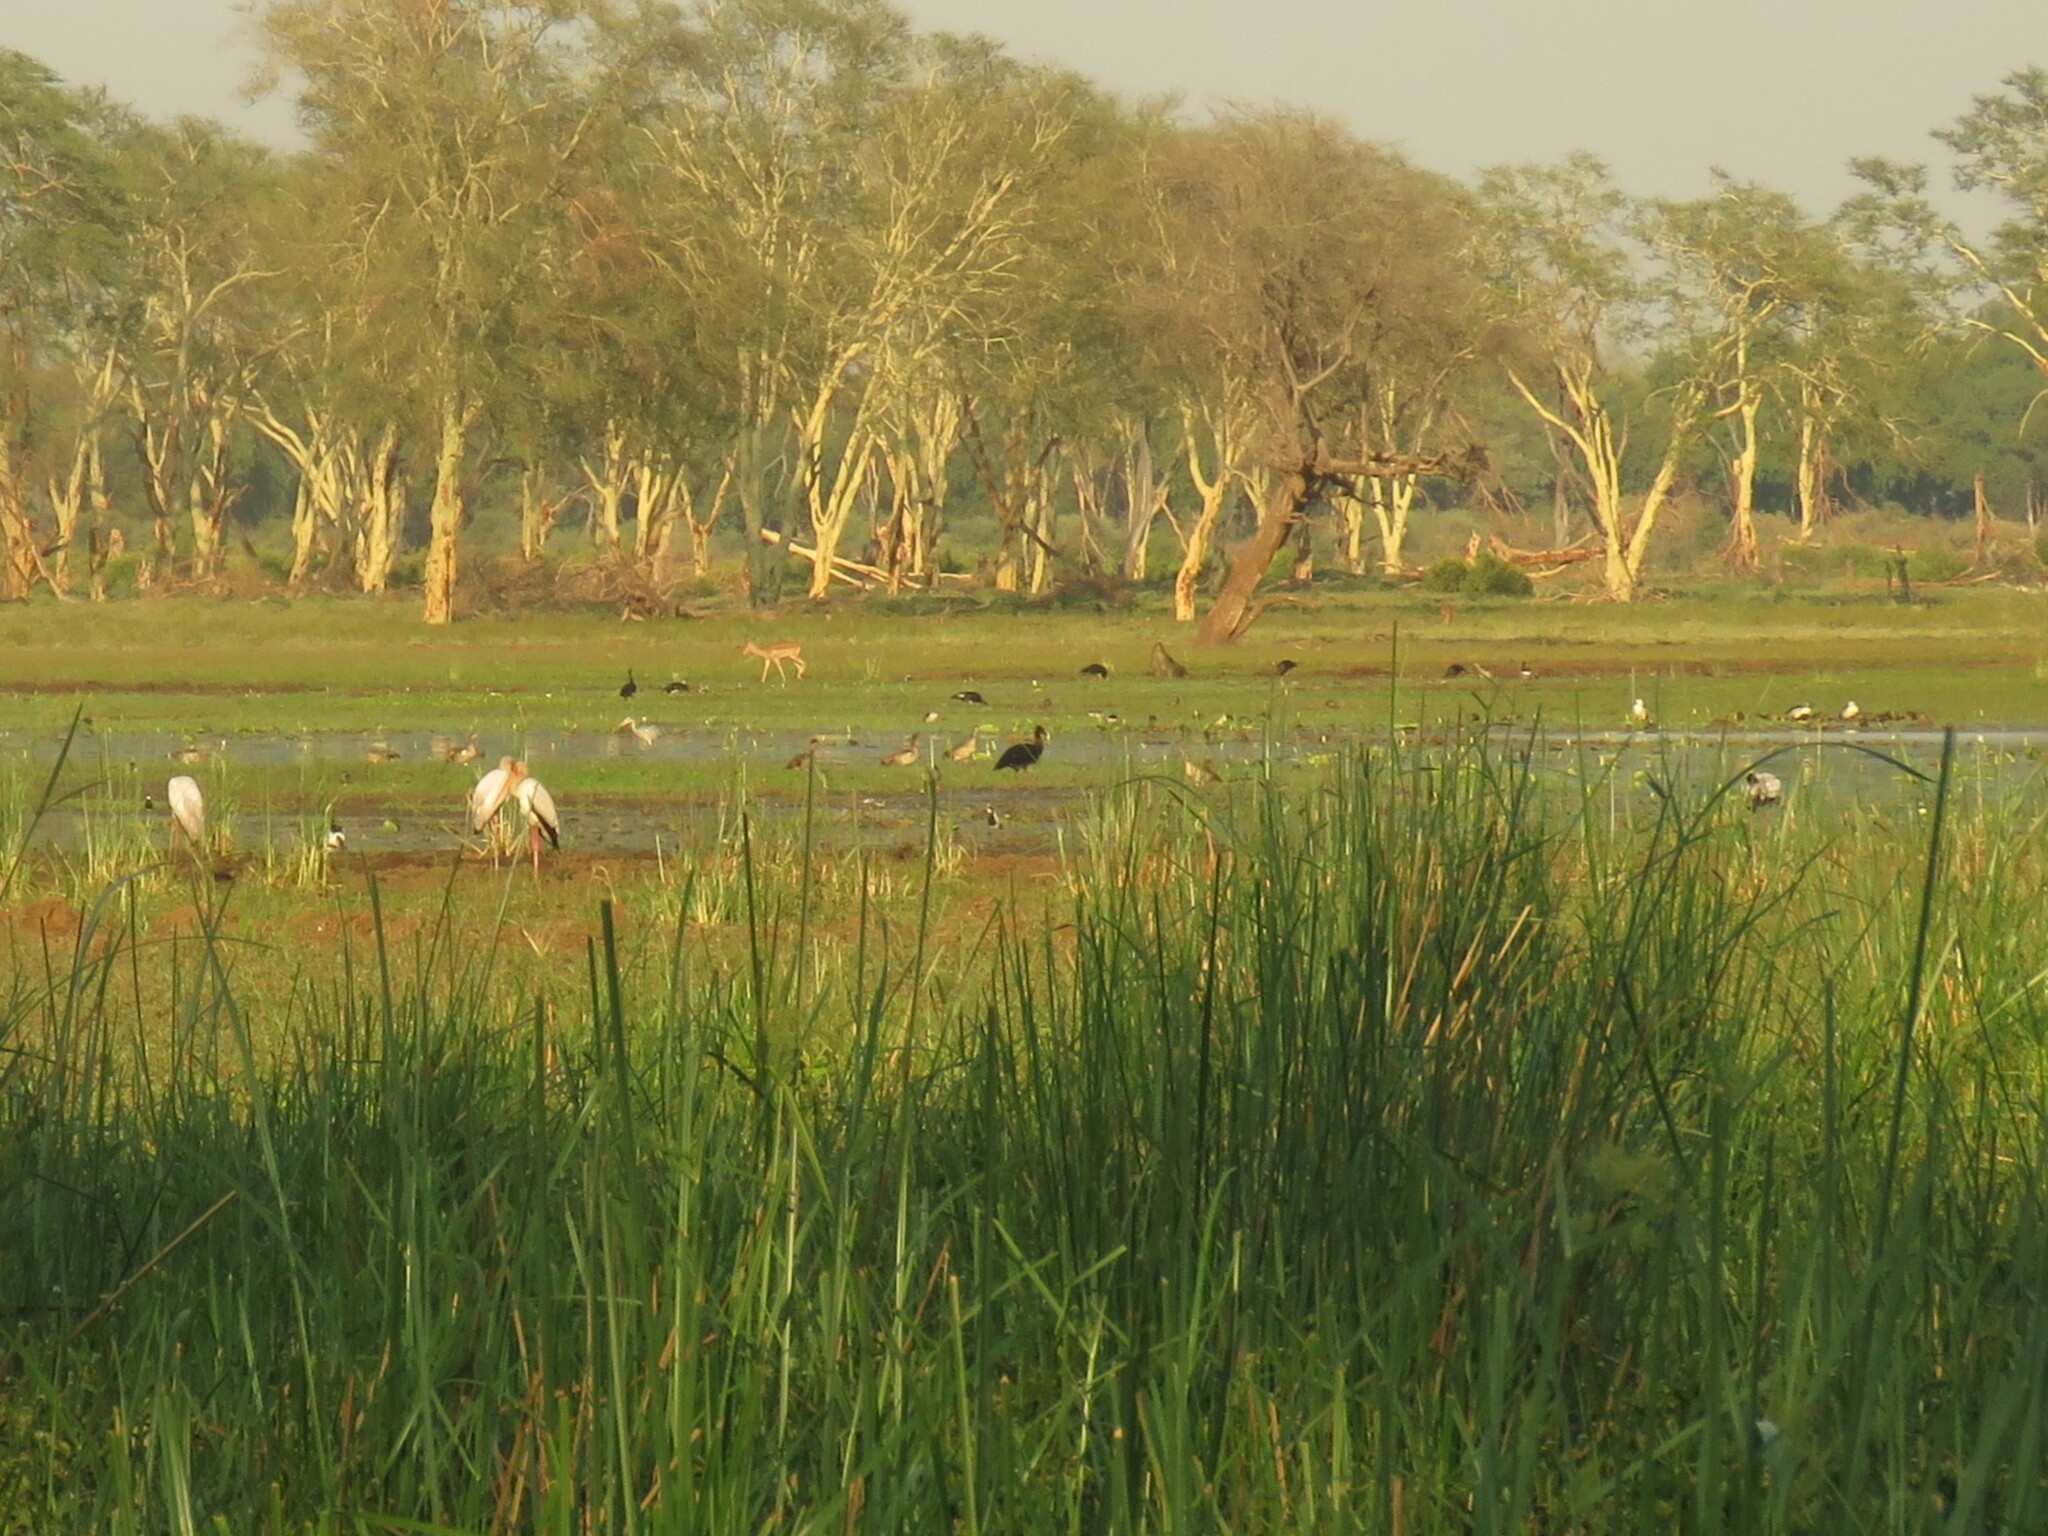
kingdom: Animalia
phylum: Chordata
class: Aves
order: Anseriformes
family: Anatidae
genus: Plectropterus
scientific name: Plectropterus gambensis
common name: Spur-winged goose
